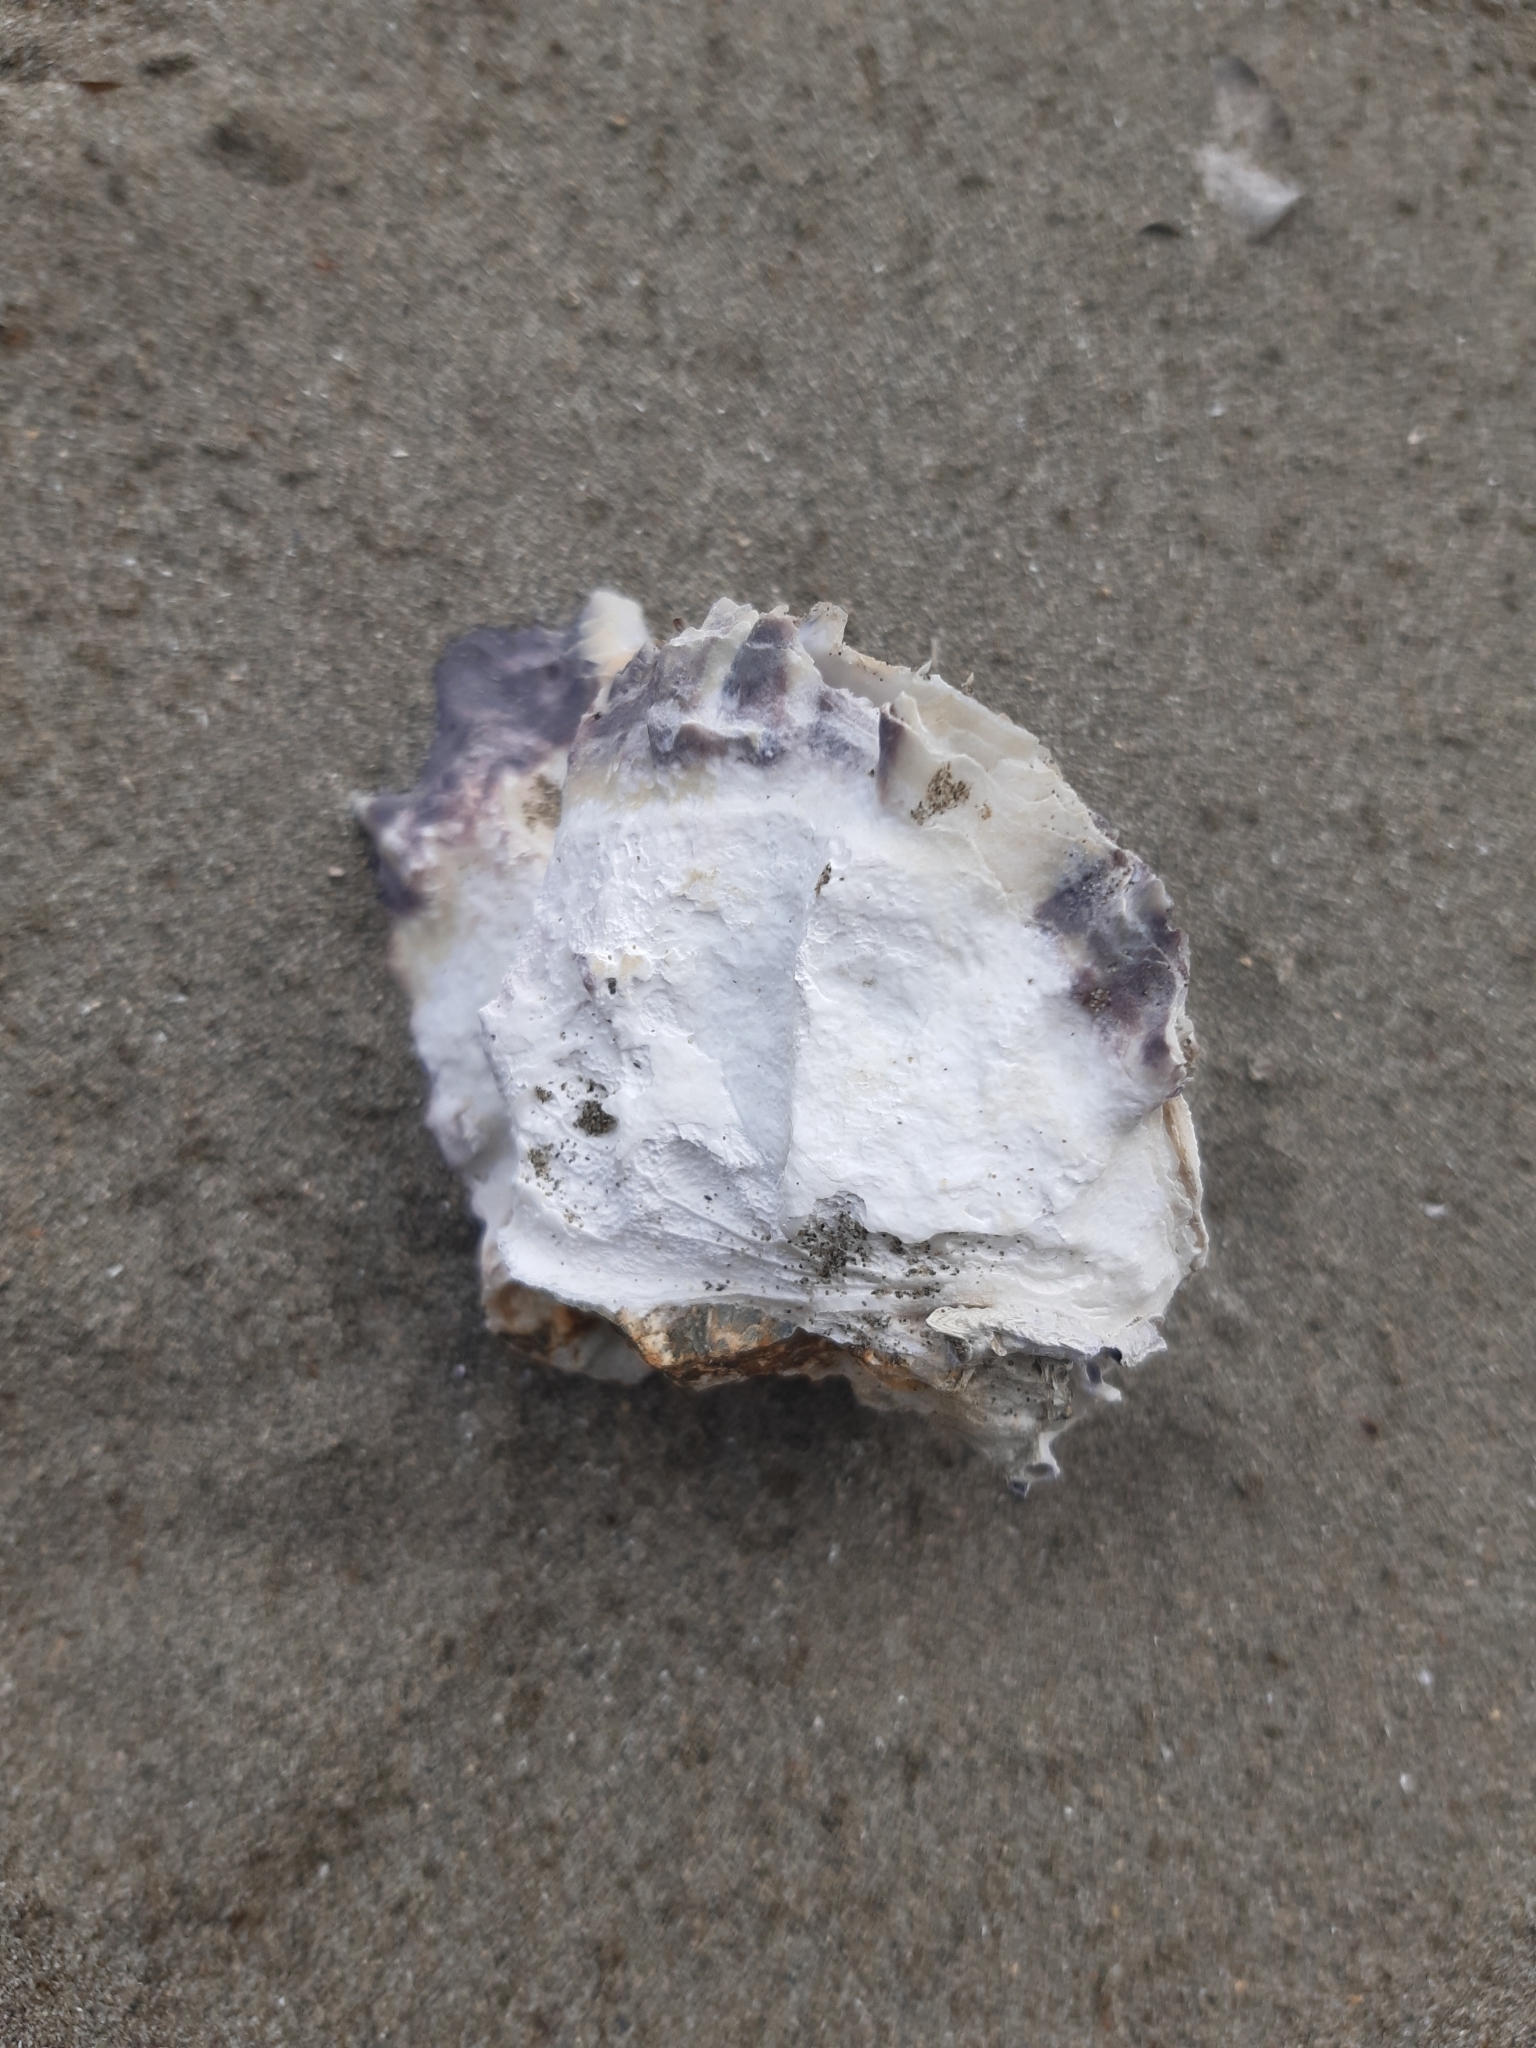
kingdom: Animalia
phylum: Mollusca
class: Bivalvia
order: Ostreida
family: Ostreidae
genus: Magallana
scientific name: Magallana gigas
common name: Pacific oyster
